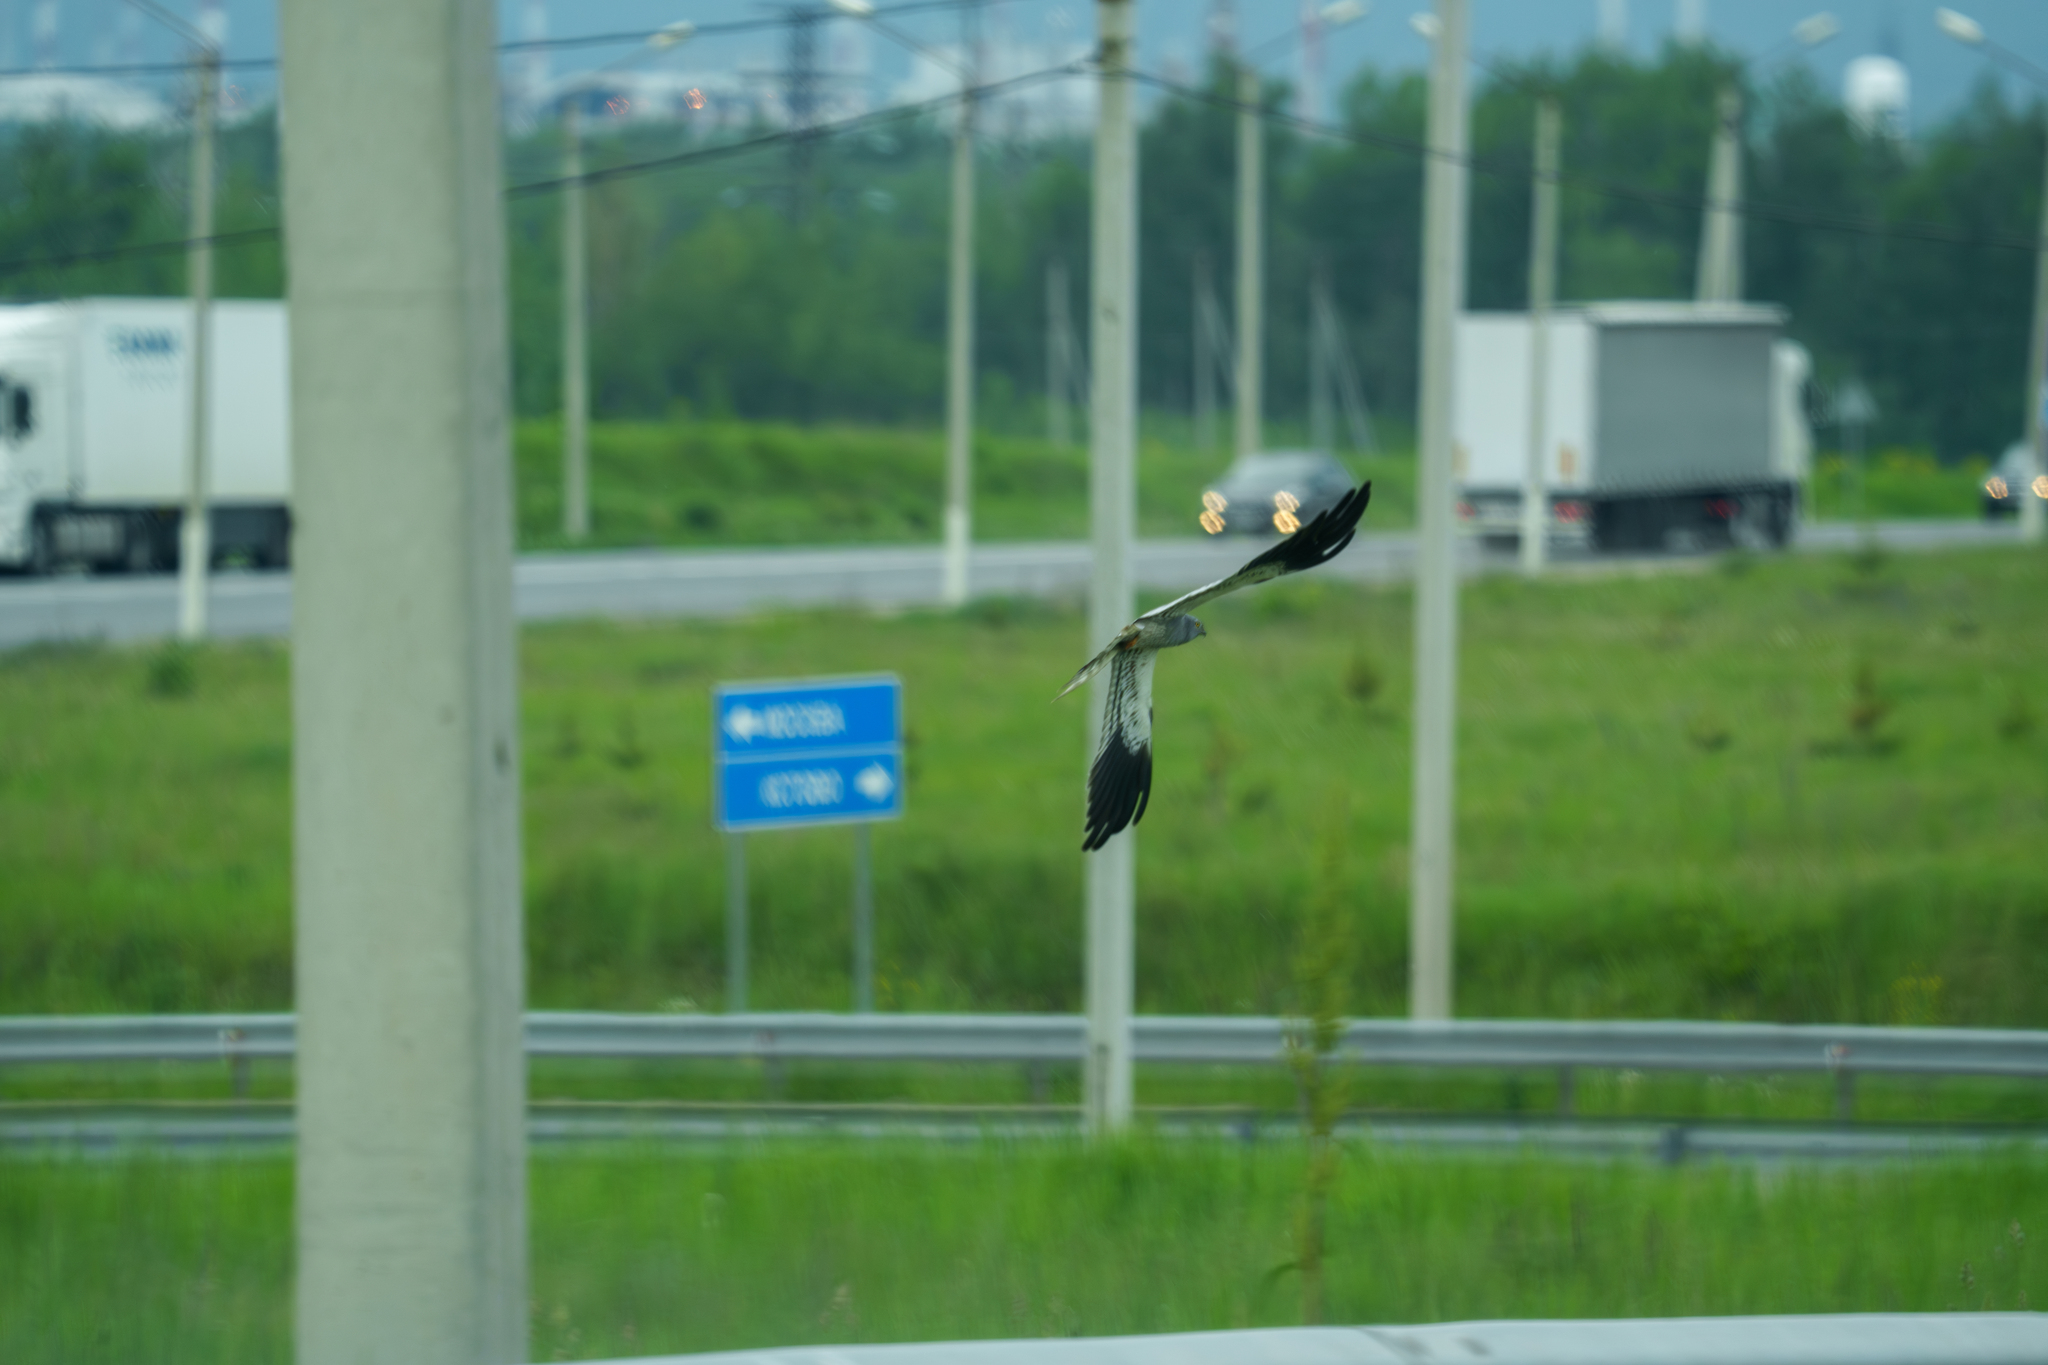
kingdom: Animalia
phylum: Chordata
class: Aves
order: Accipitriformes
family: Accipitridae
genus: Circus
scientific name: Circus pygargus
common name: Montagu's harrier
